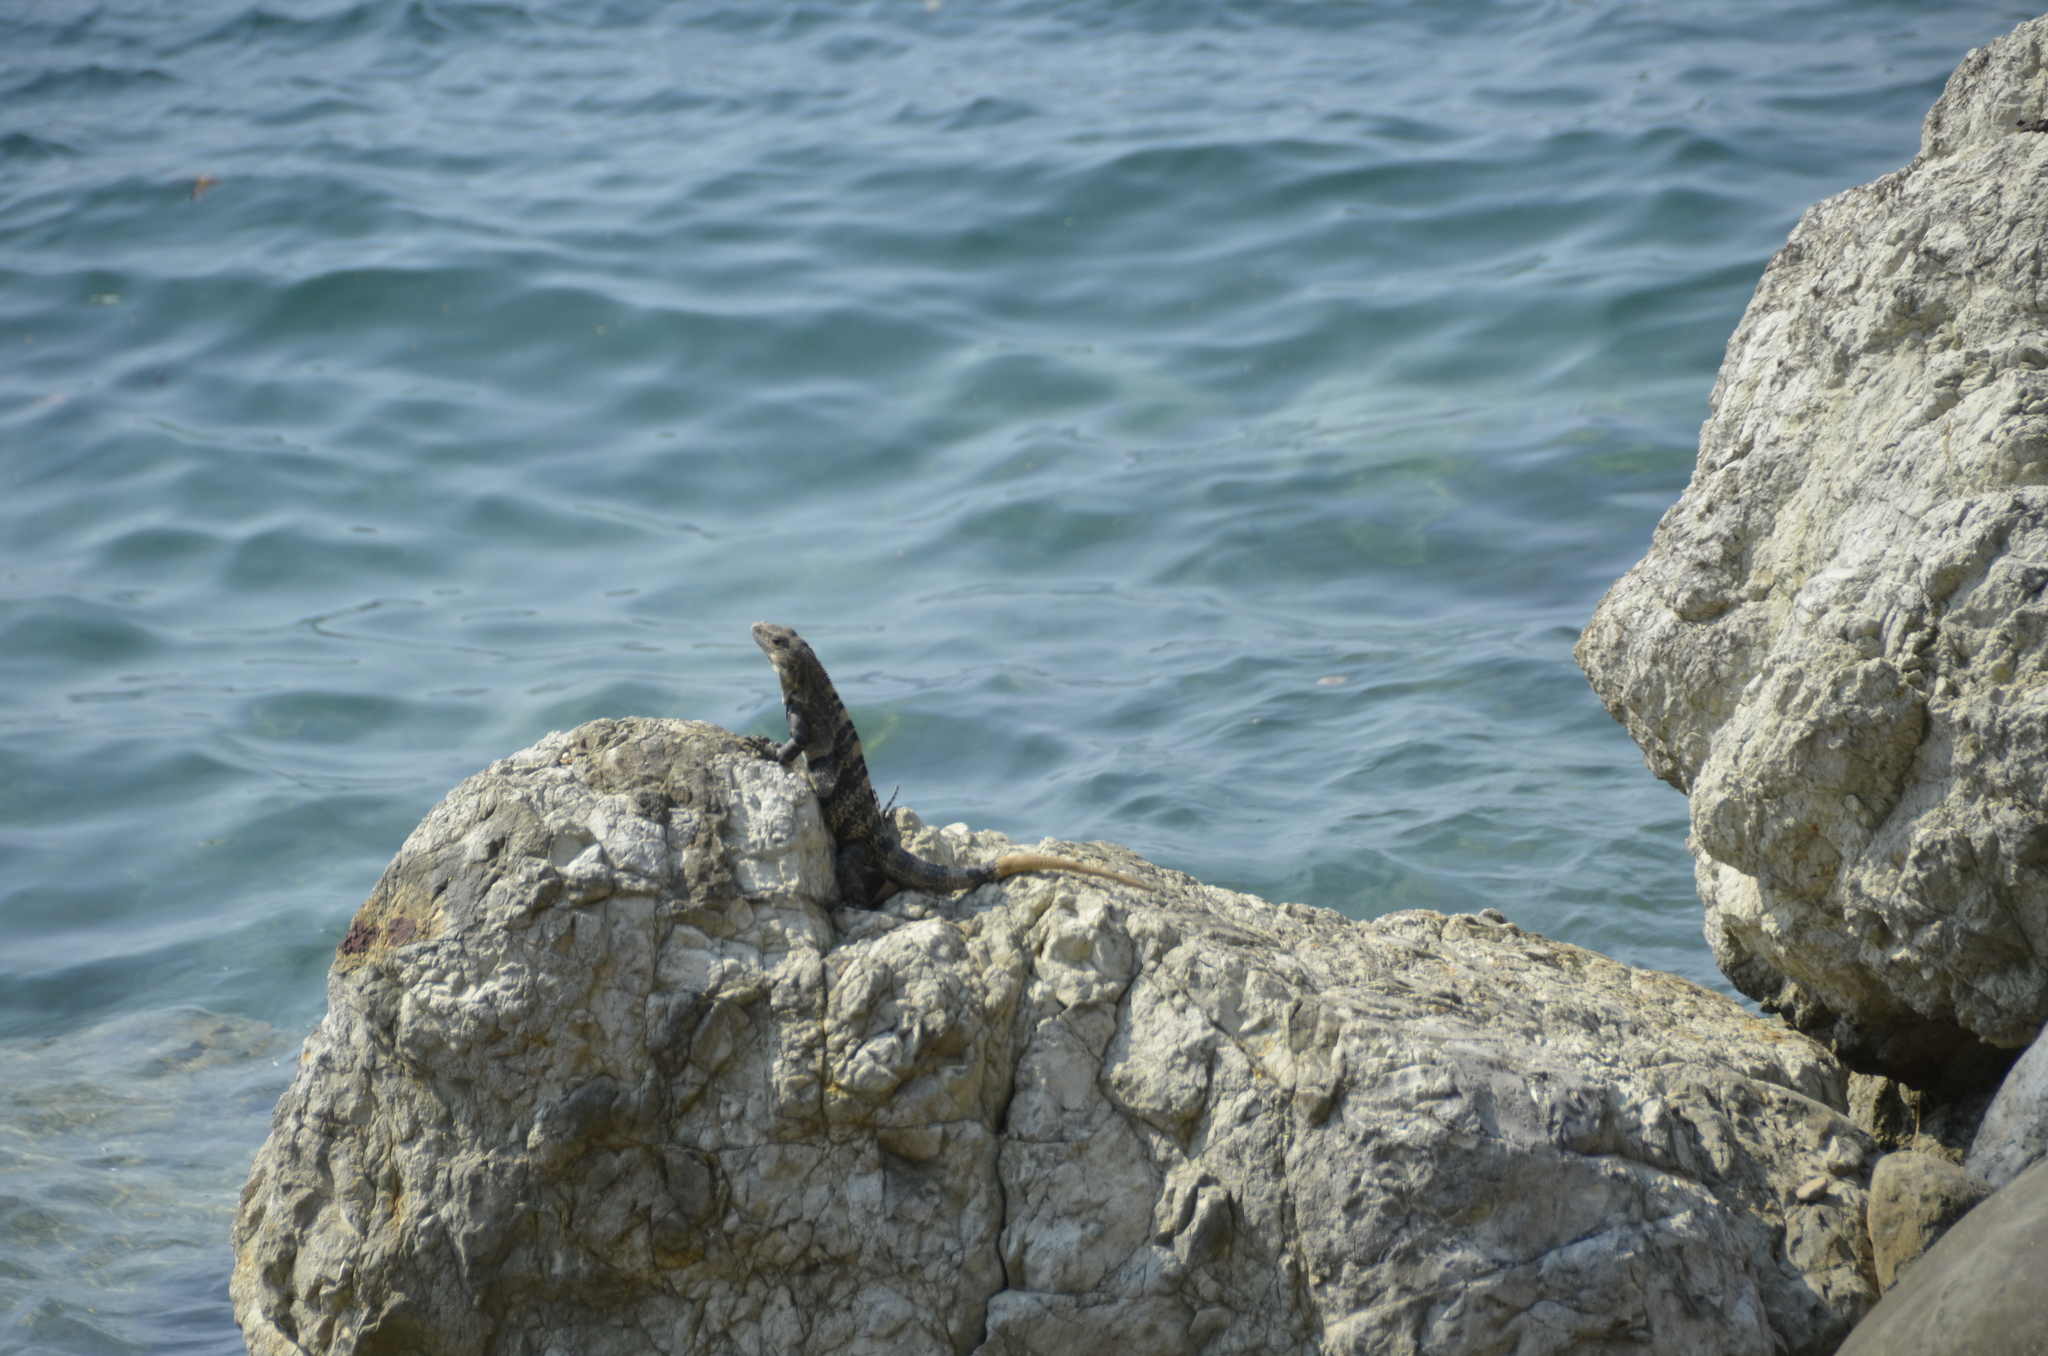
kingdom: Animalia
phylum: Chordata
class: Squamata
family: Iguanidae
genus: Ctenosaura
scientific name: Ctenosaura similis
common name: Black spiny-tailed iguana
